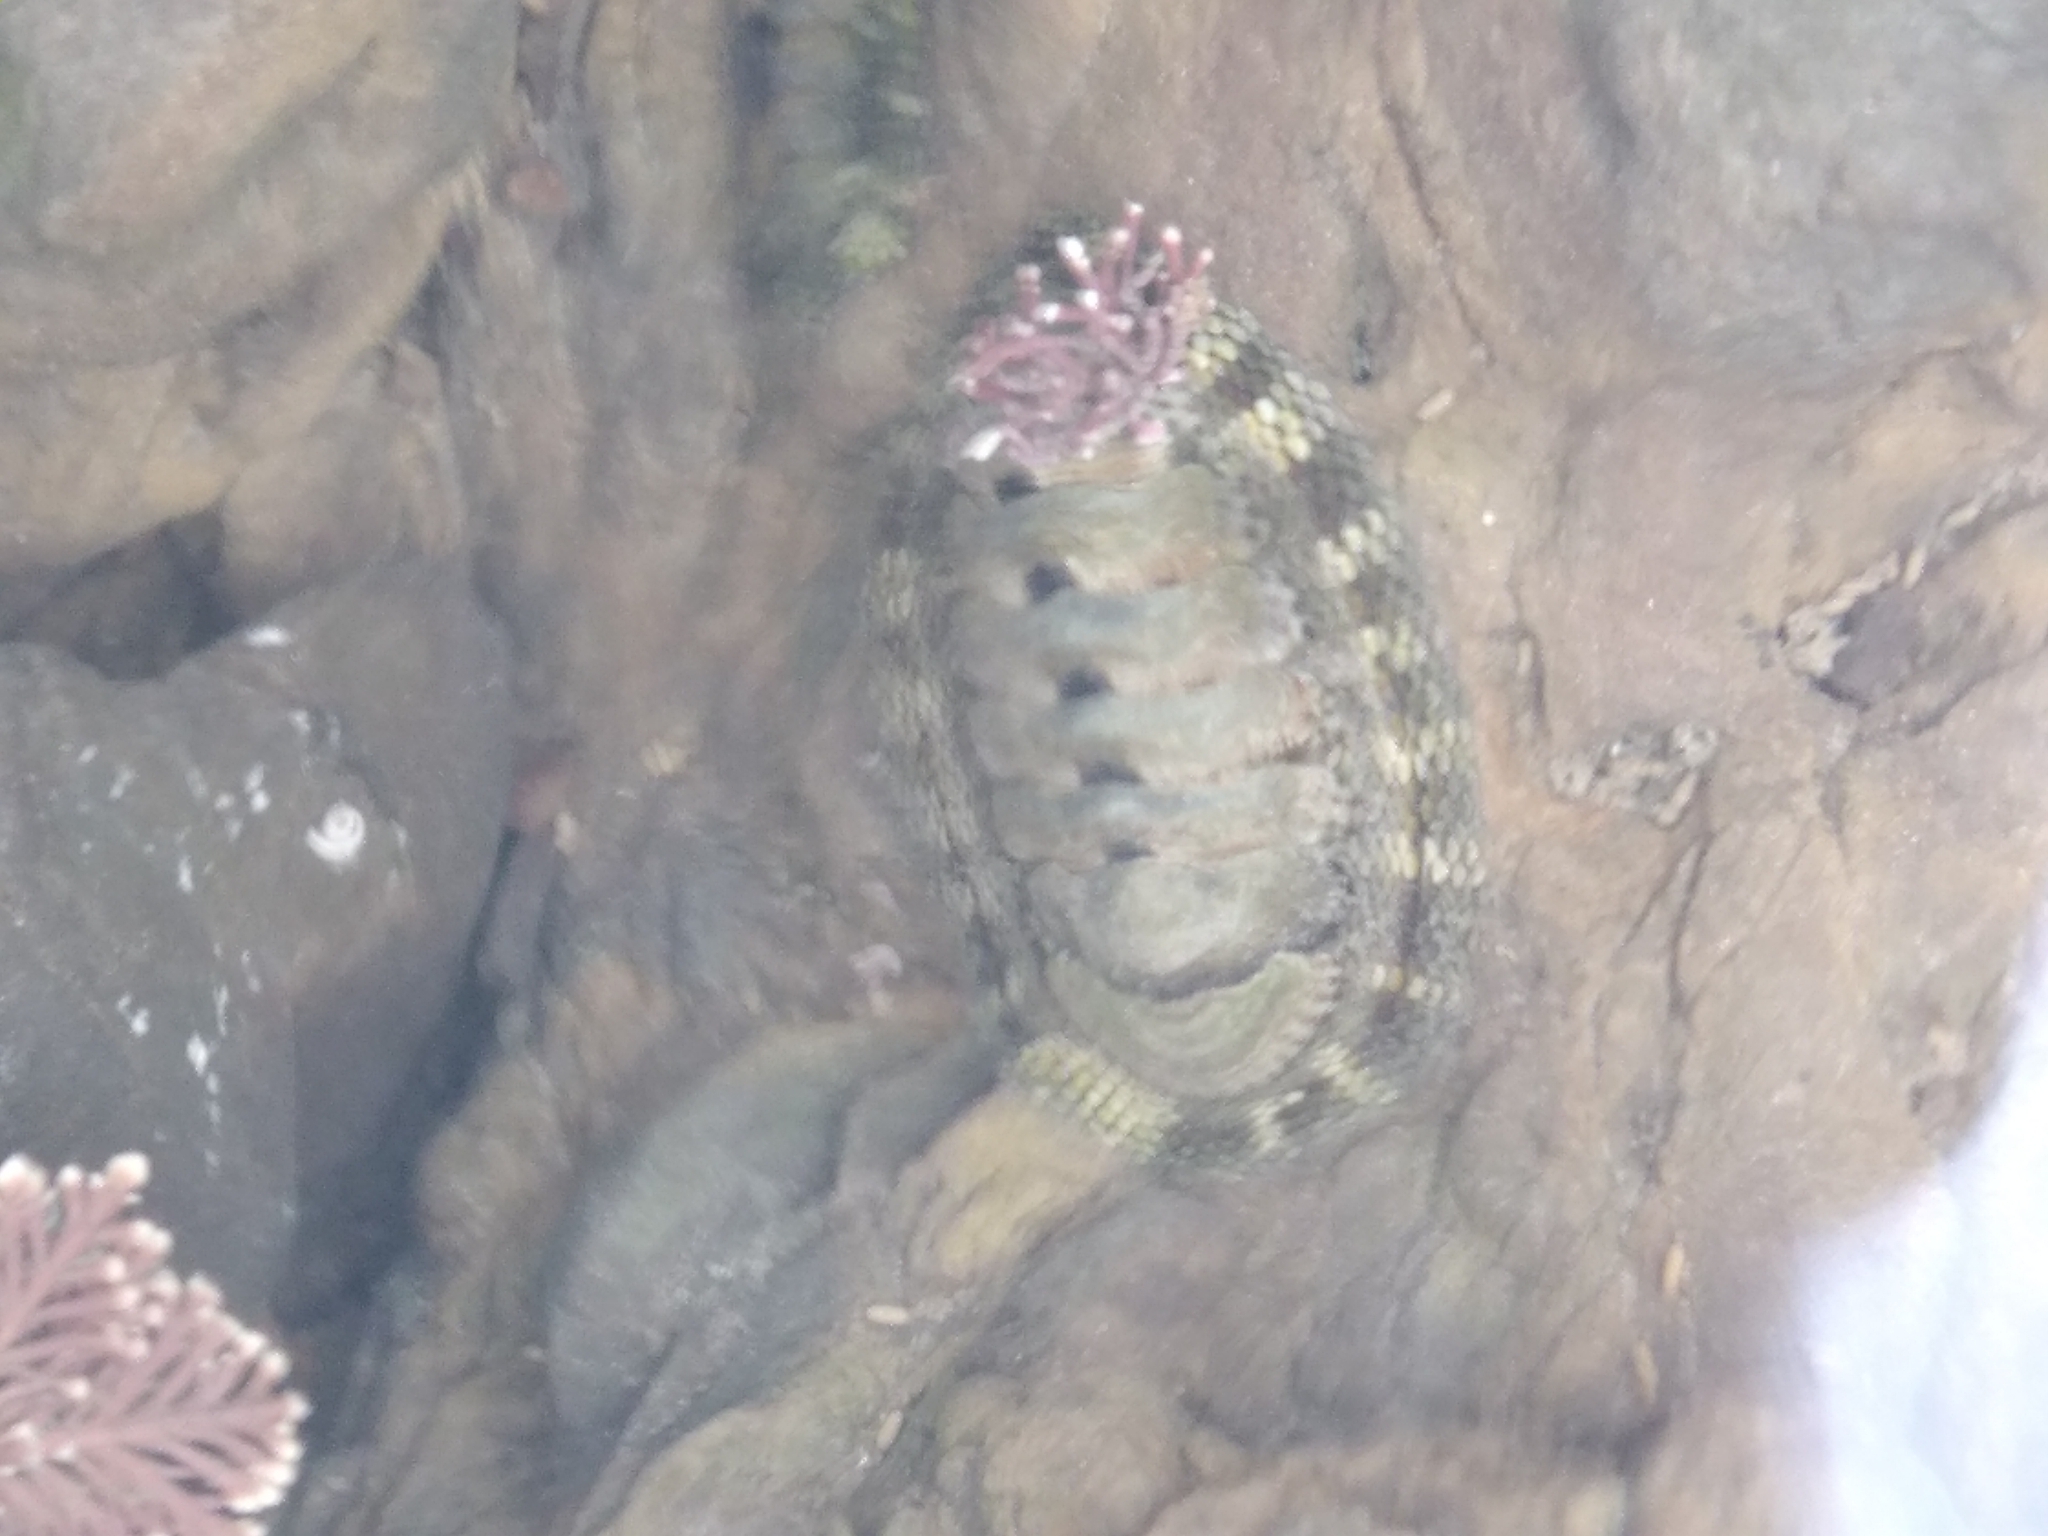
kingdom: Animalia
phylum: Mollusca
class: Polyplacophora
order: Chitonida
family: Chitonidae
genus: Sypharochiton
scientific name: Sypharochiton pelliserpentis
